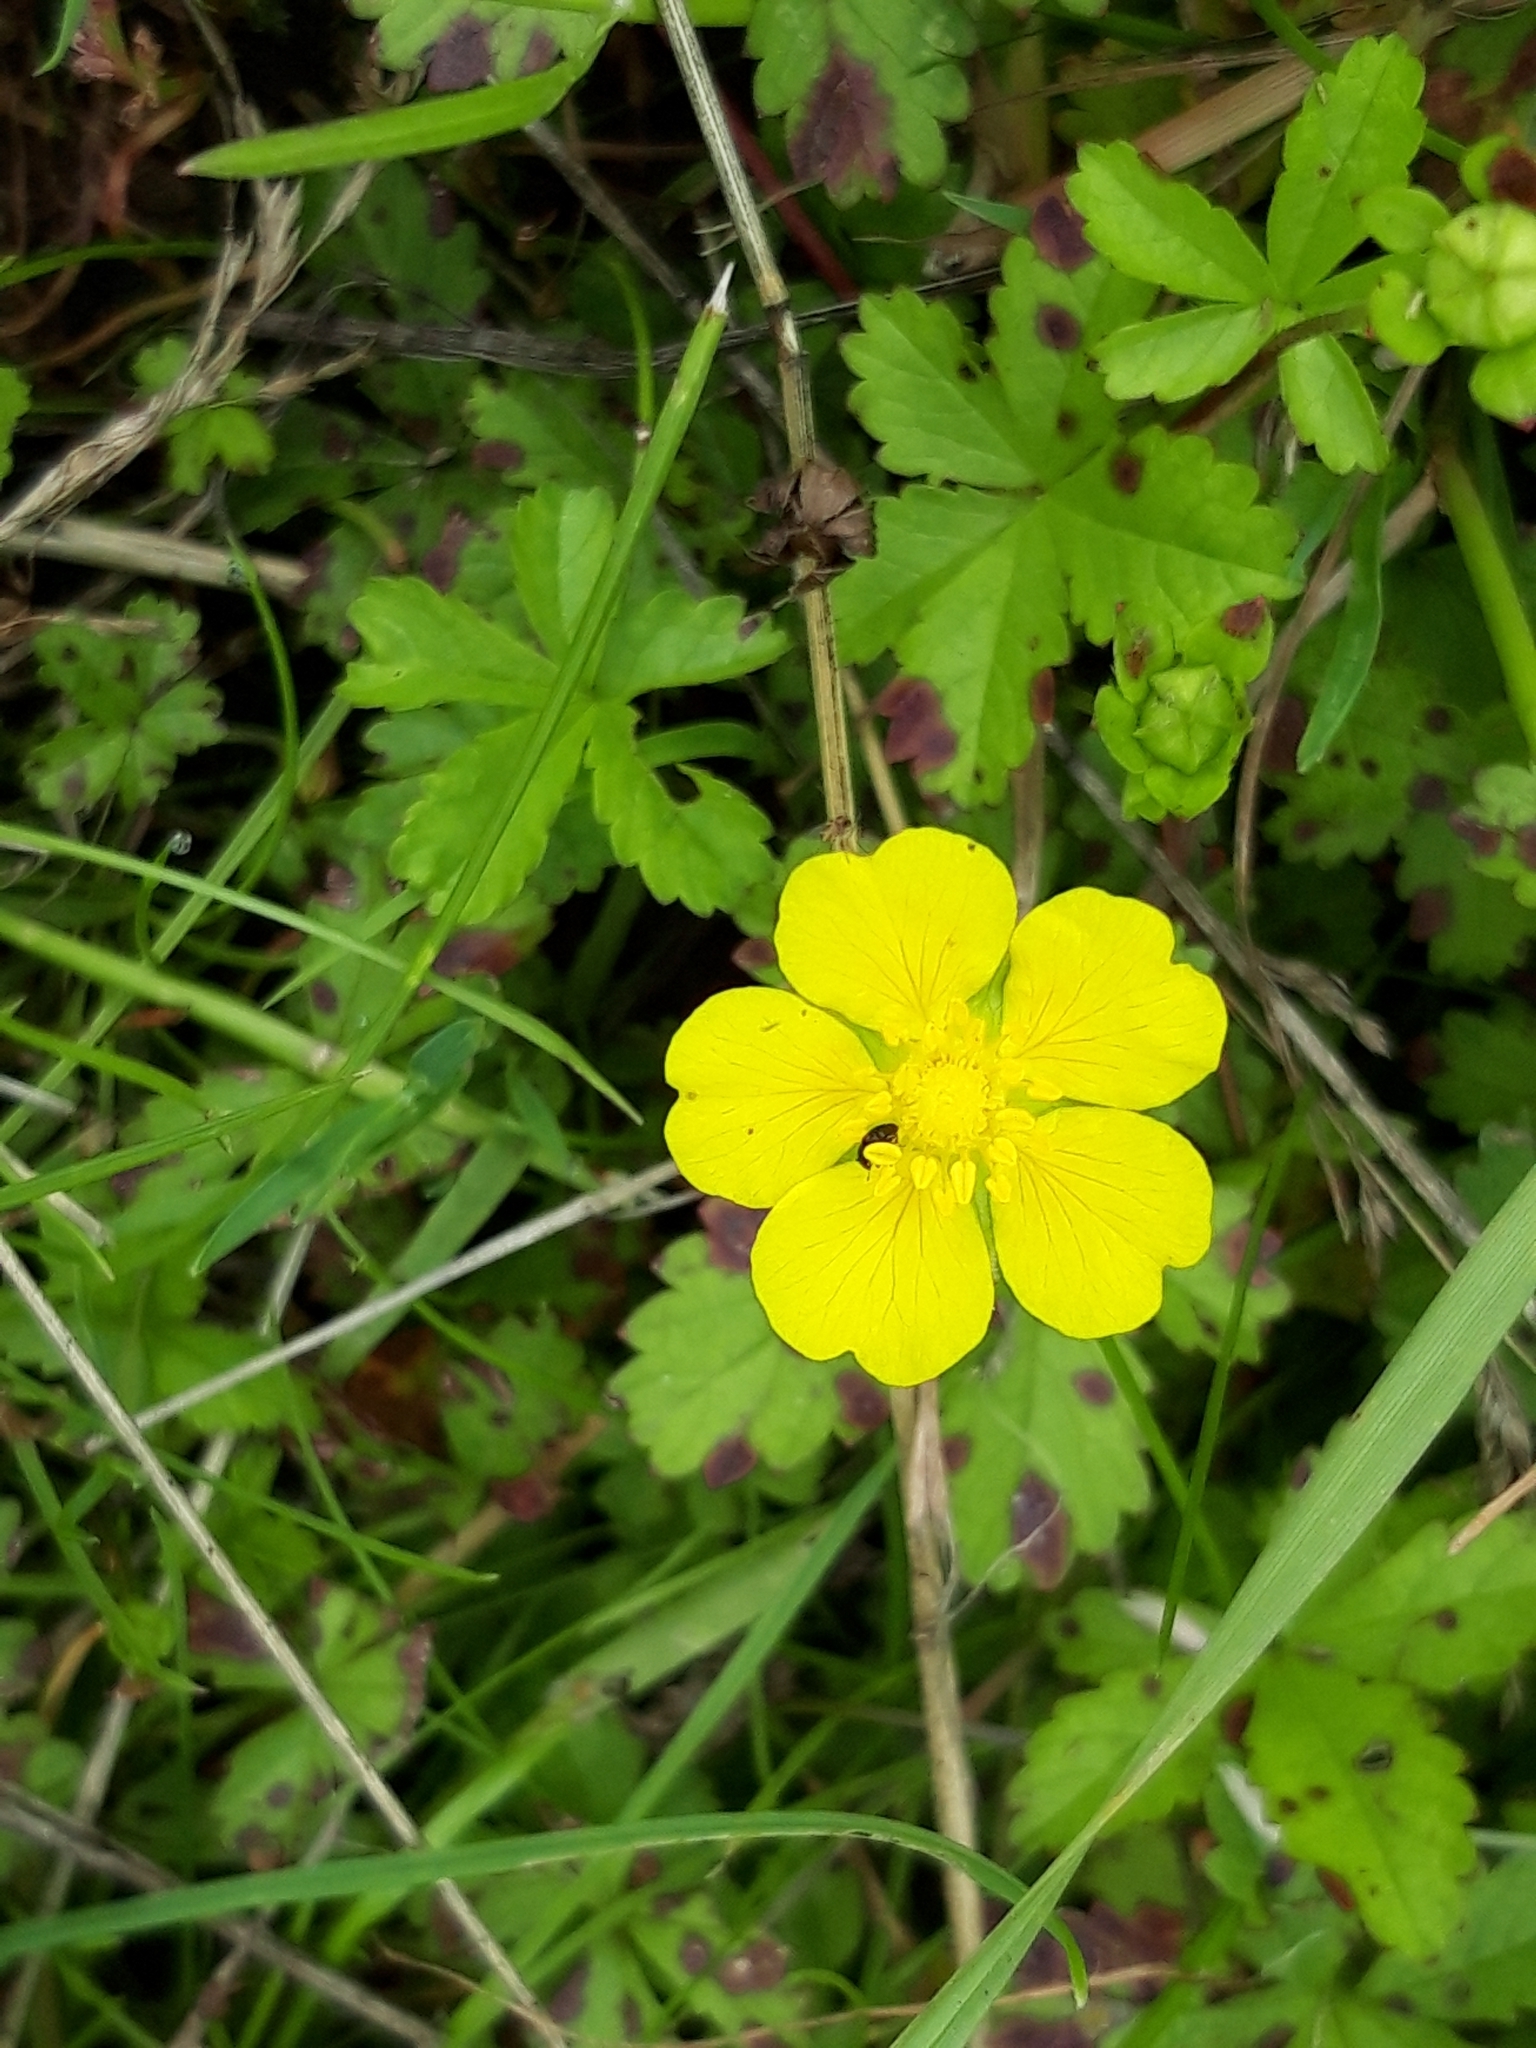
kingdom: Plantae
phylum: Tracheophyta
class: Magnoliopsida
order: Rosales
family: Rosaceae
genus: Potentilla
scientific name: Potentilla reptans
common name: Creeping cinquefoil
